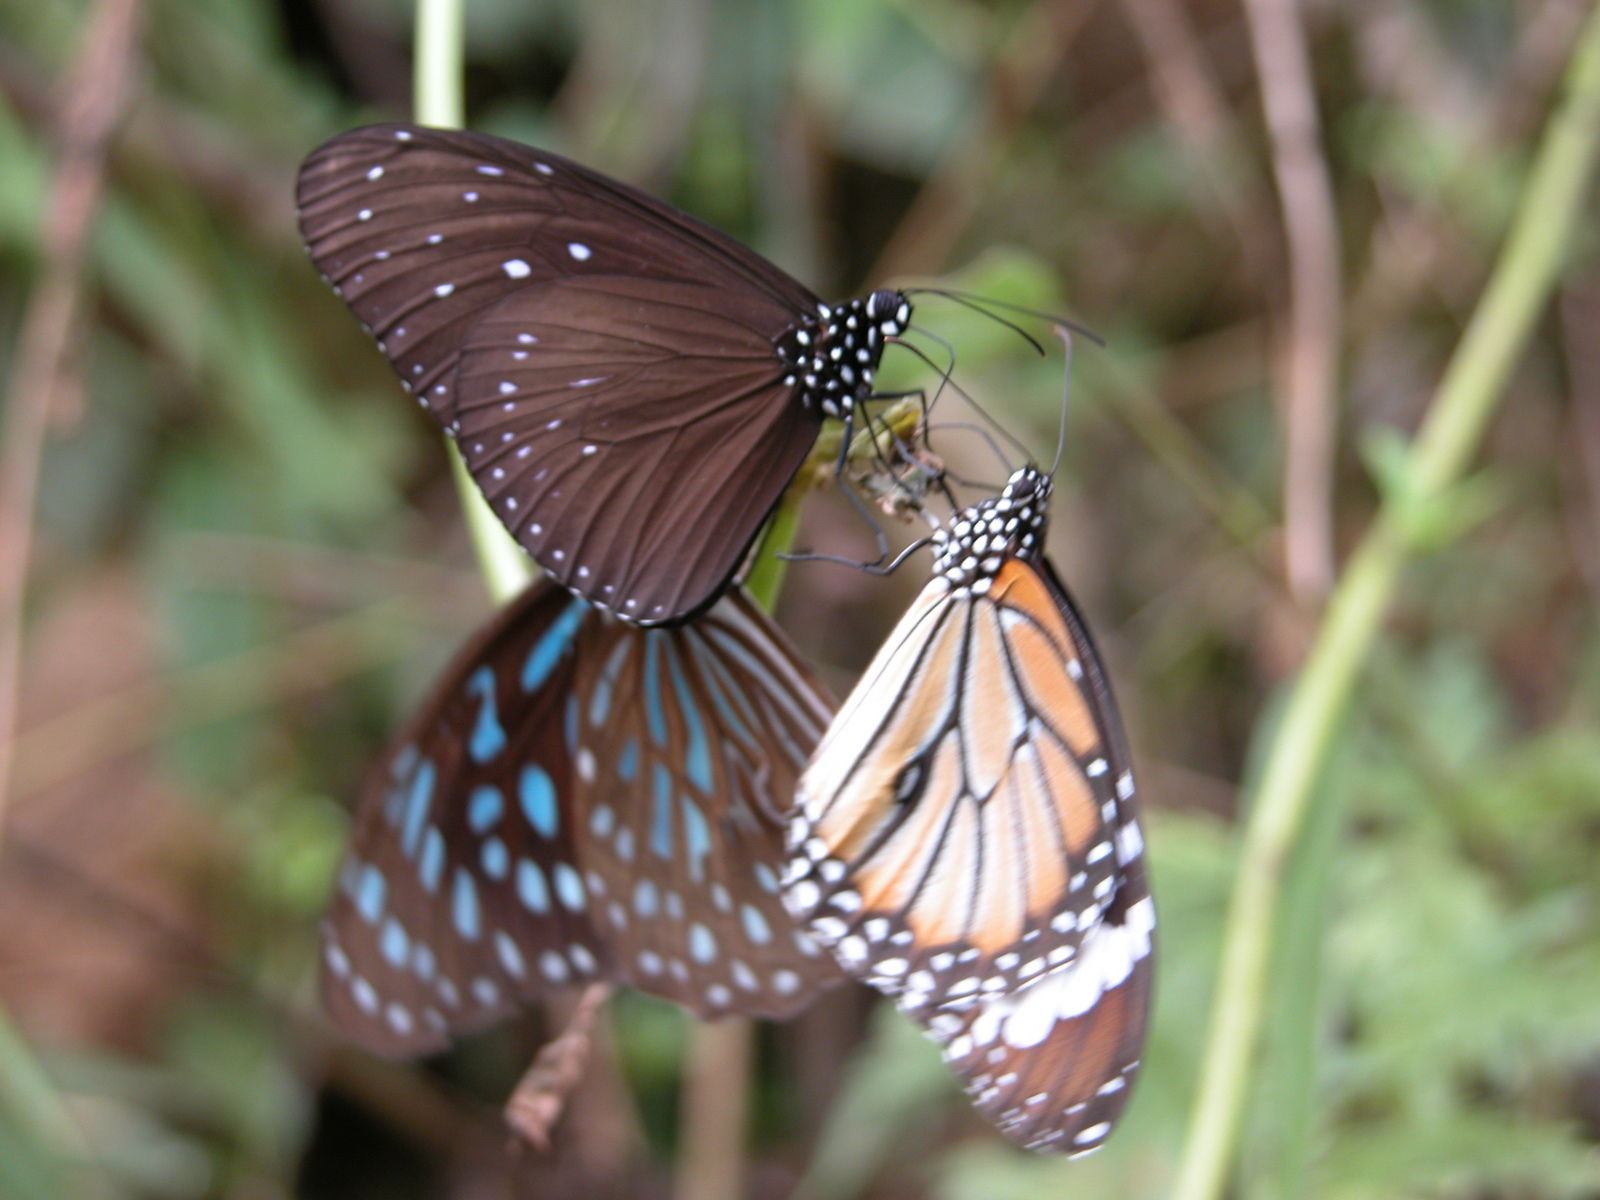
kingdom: Animalia
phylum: Arthropoda
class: Insecta
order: Lepidoptera
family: Nymphalidae
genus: Tirumala
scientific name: Tirumala septentrionis
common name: Dark blue tiger butterfly
